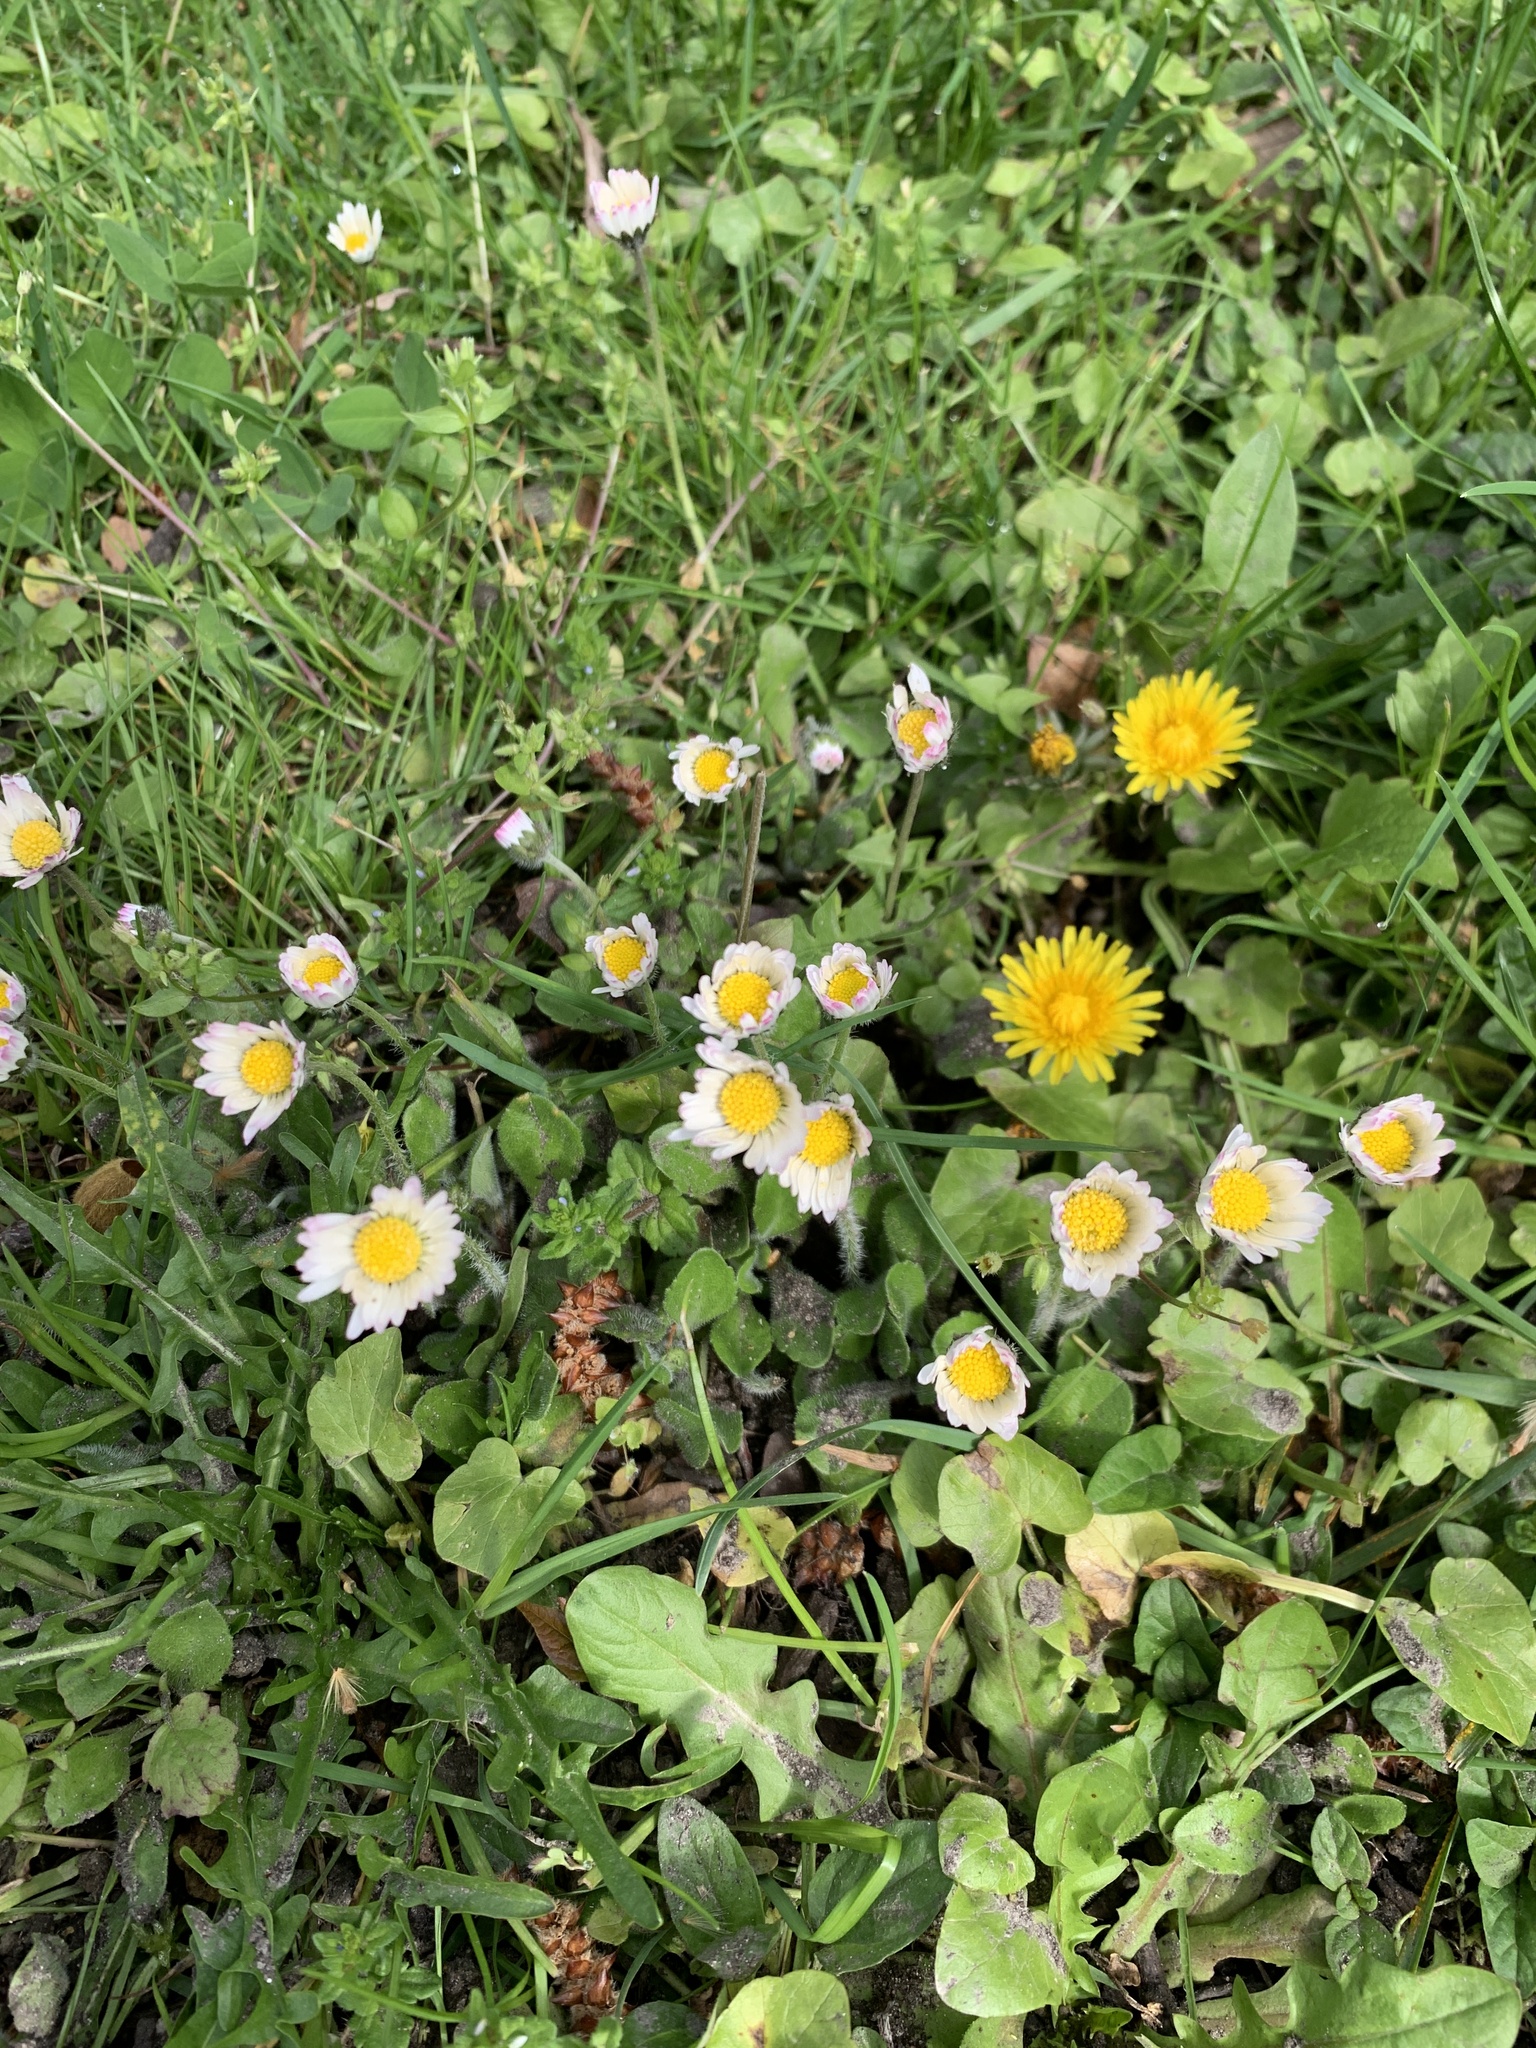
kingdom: Plantae
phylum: Tracheophyta
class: Magnoliopsida
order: Asterales
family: Asteraceae
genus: Bellis
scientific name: Bellis perennis
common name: Lawndaisy
